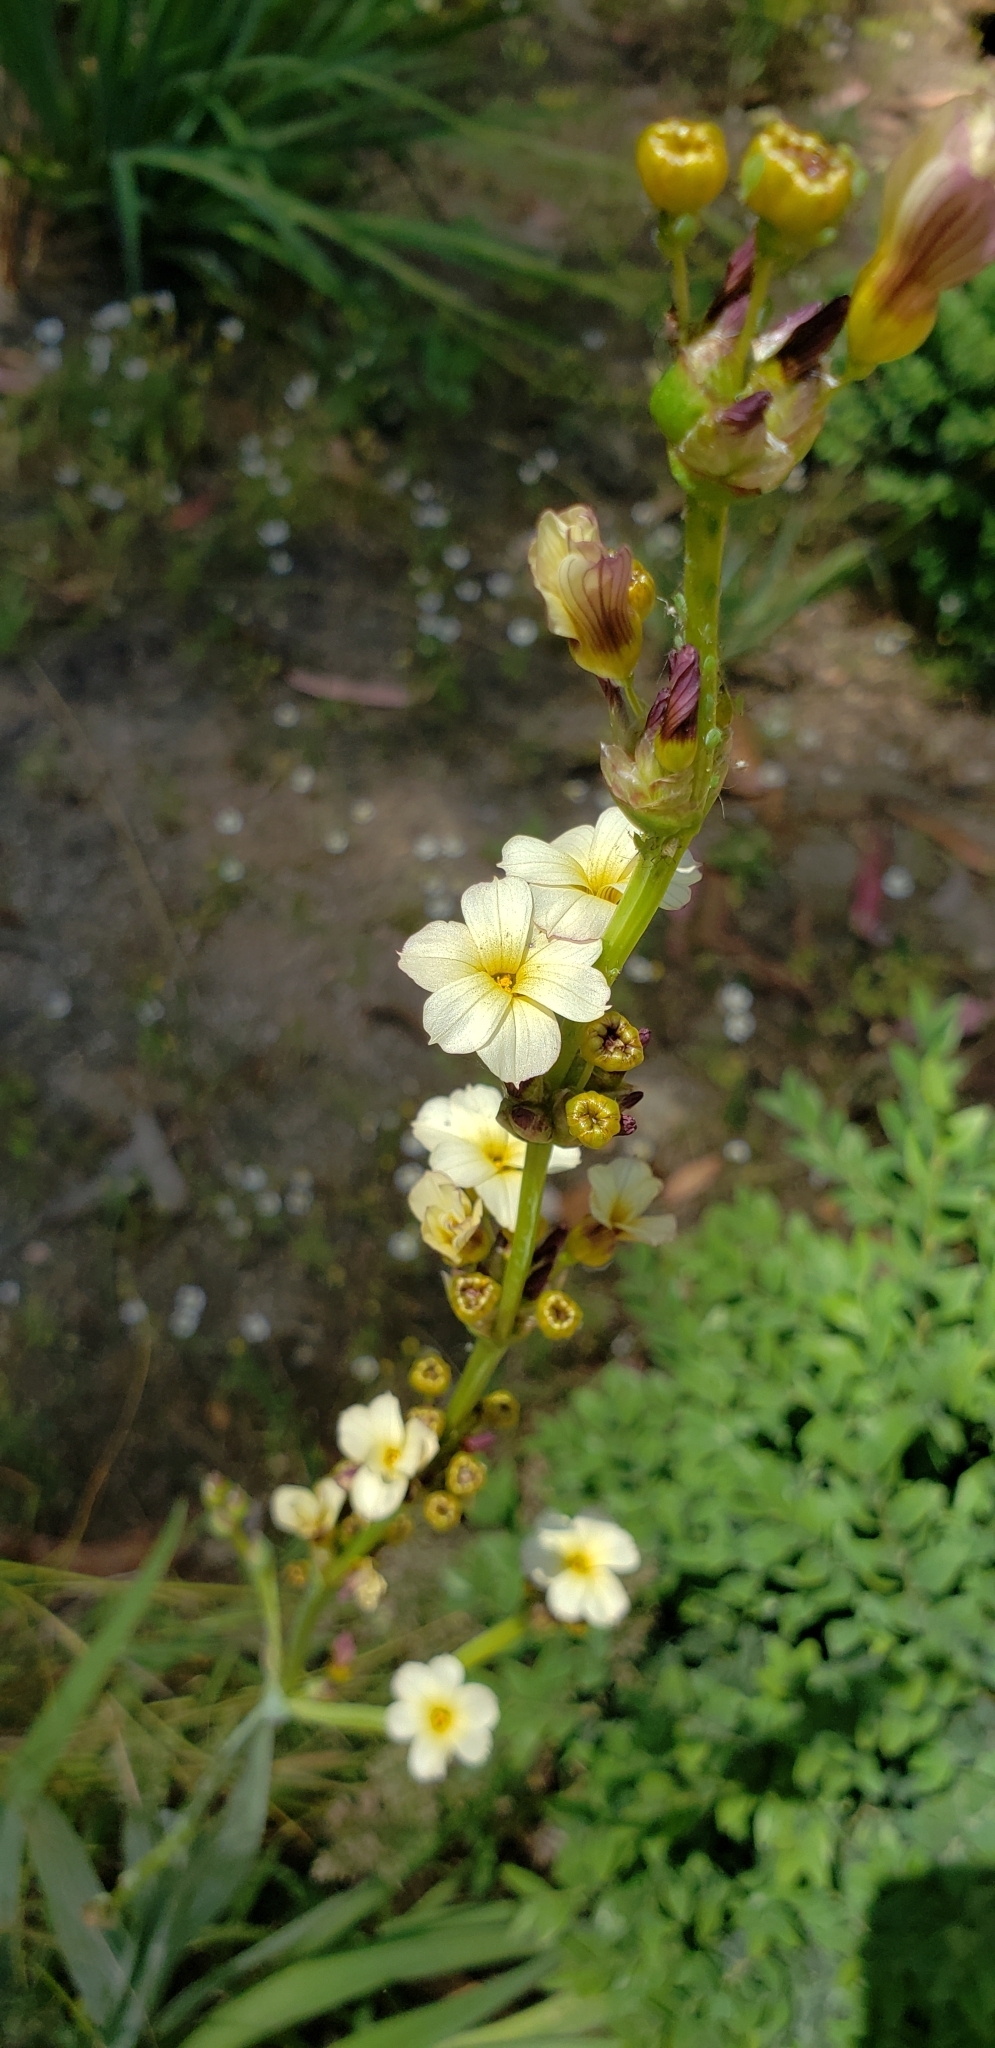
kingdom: Plantae
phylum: Tracheophyta
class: Liliopsida
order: Asparagales
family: Iridaceae
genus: Sisyrinchium
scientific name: Sisyrinchium striatum
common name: Pale yellow-eyed-grass
